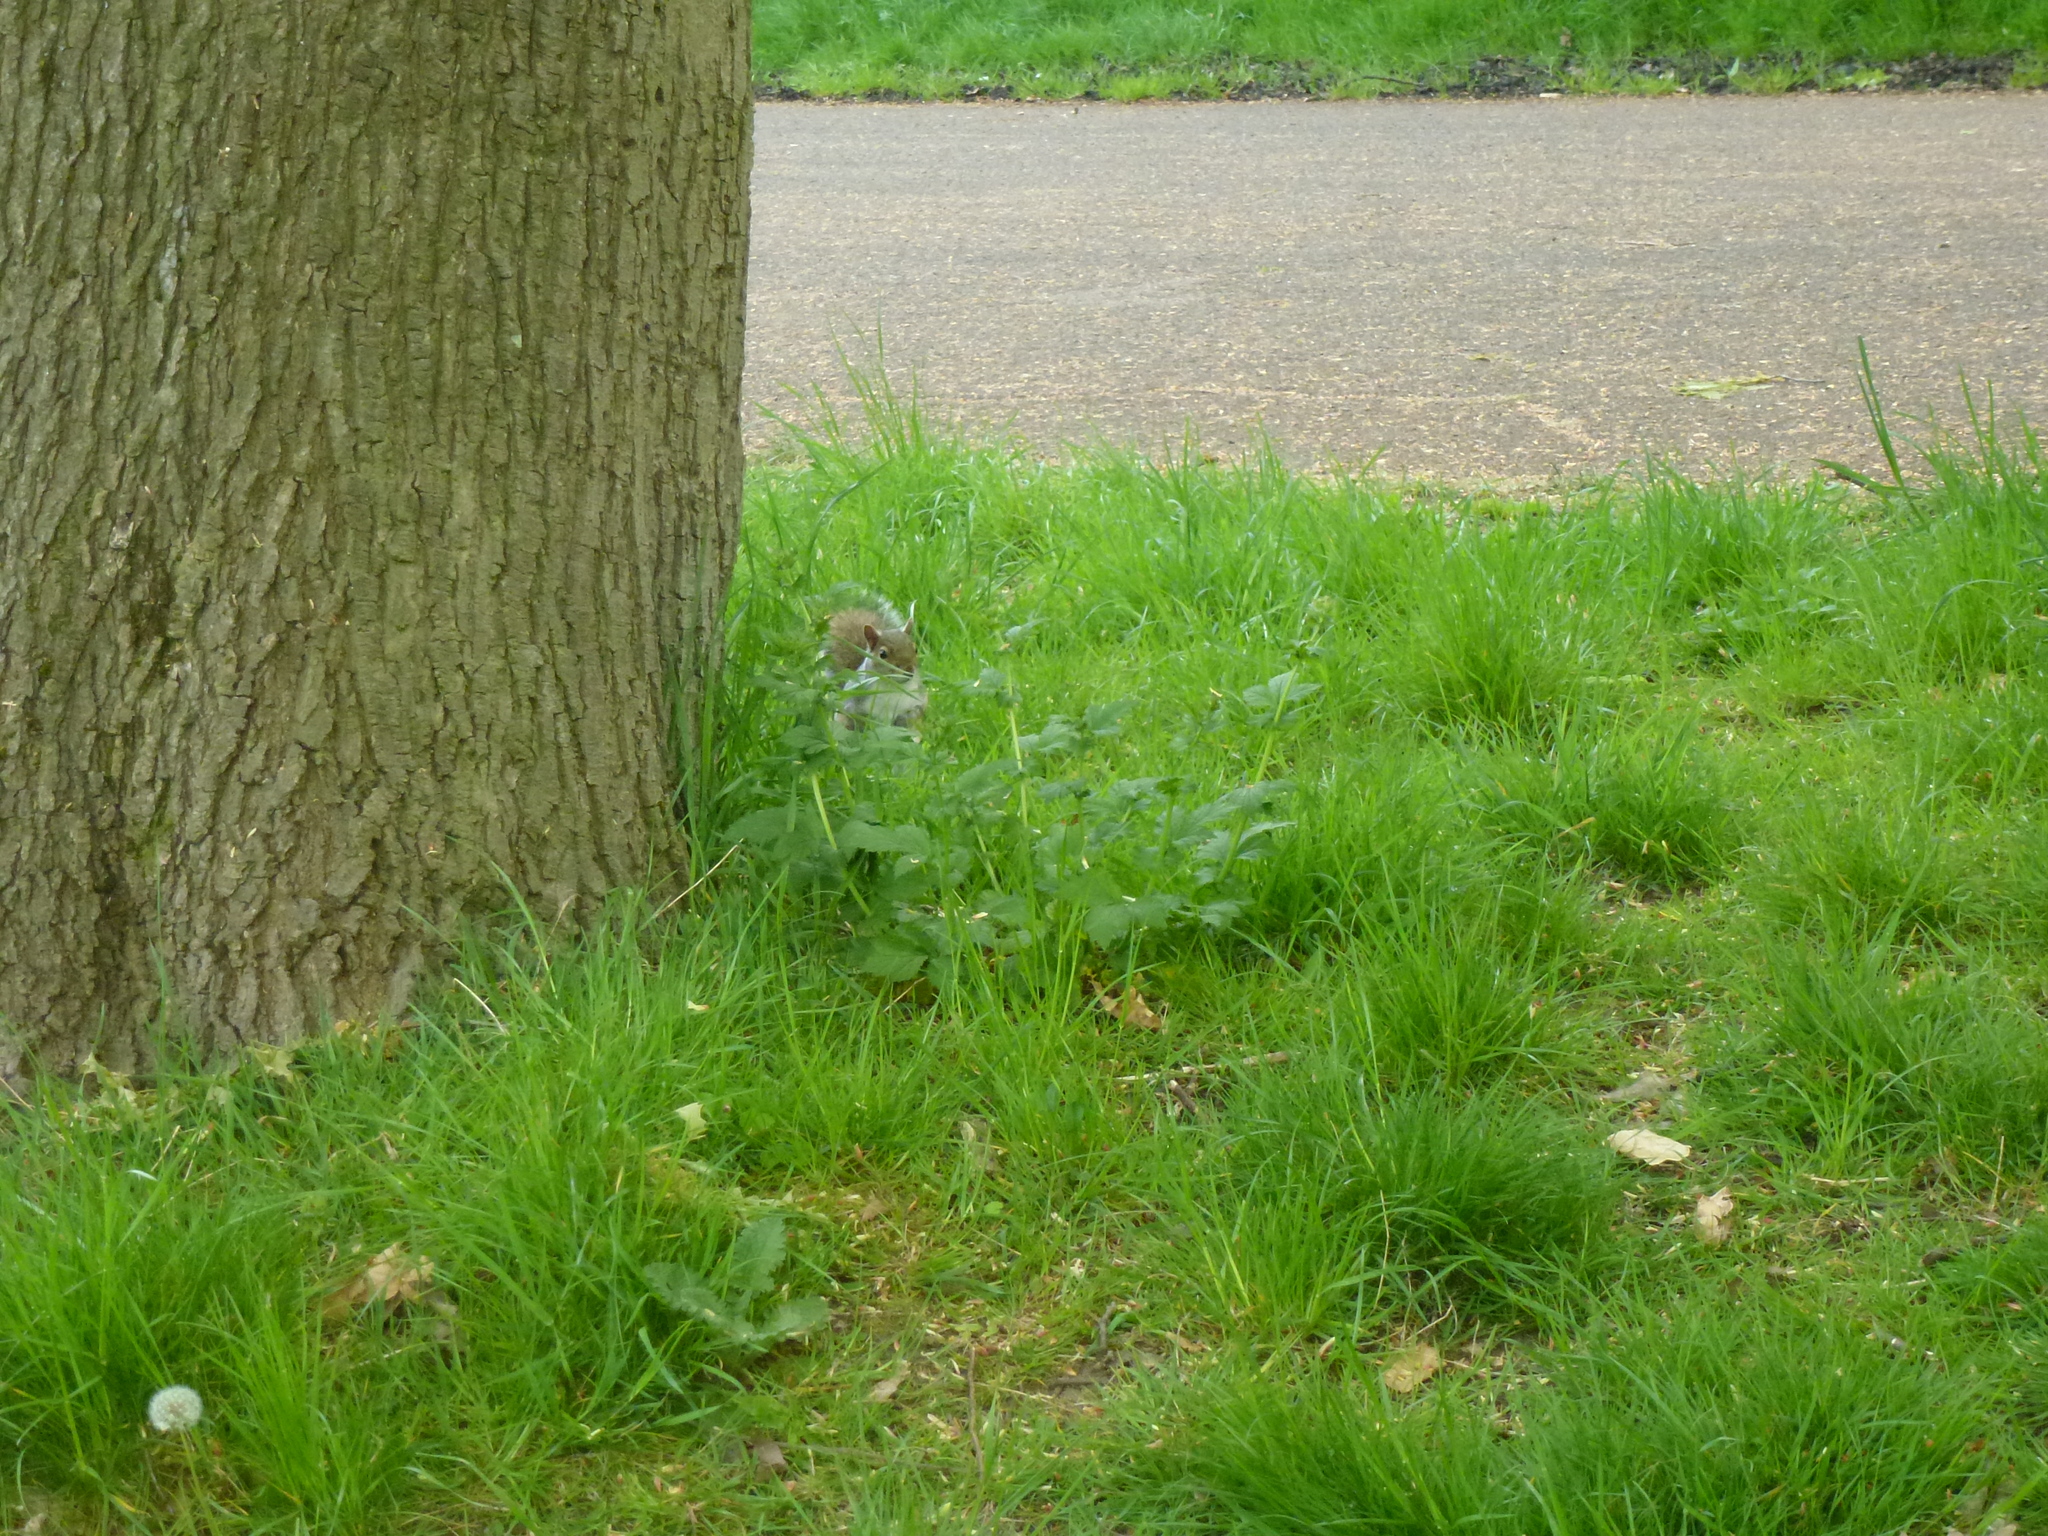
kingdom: Animalia
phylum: Chordata
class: Mammalia
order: Rodentia
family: Sciuridae
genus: Sciurus
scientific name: Sciurus carolinensis
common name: Eastern gray squirrel
